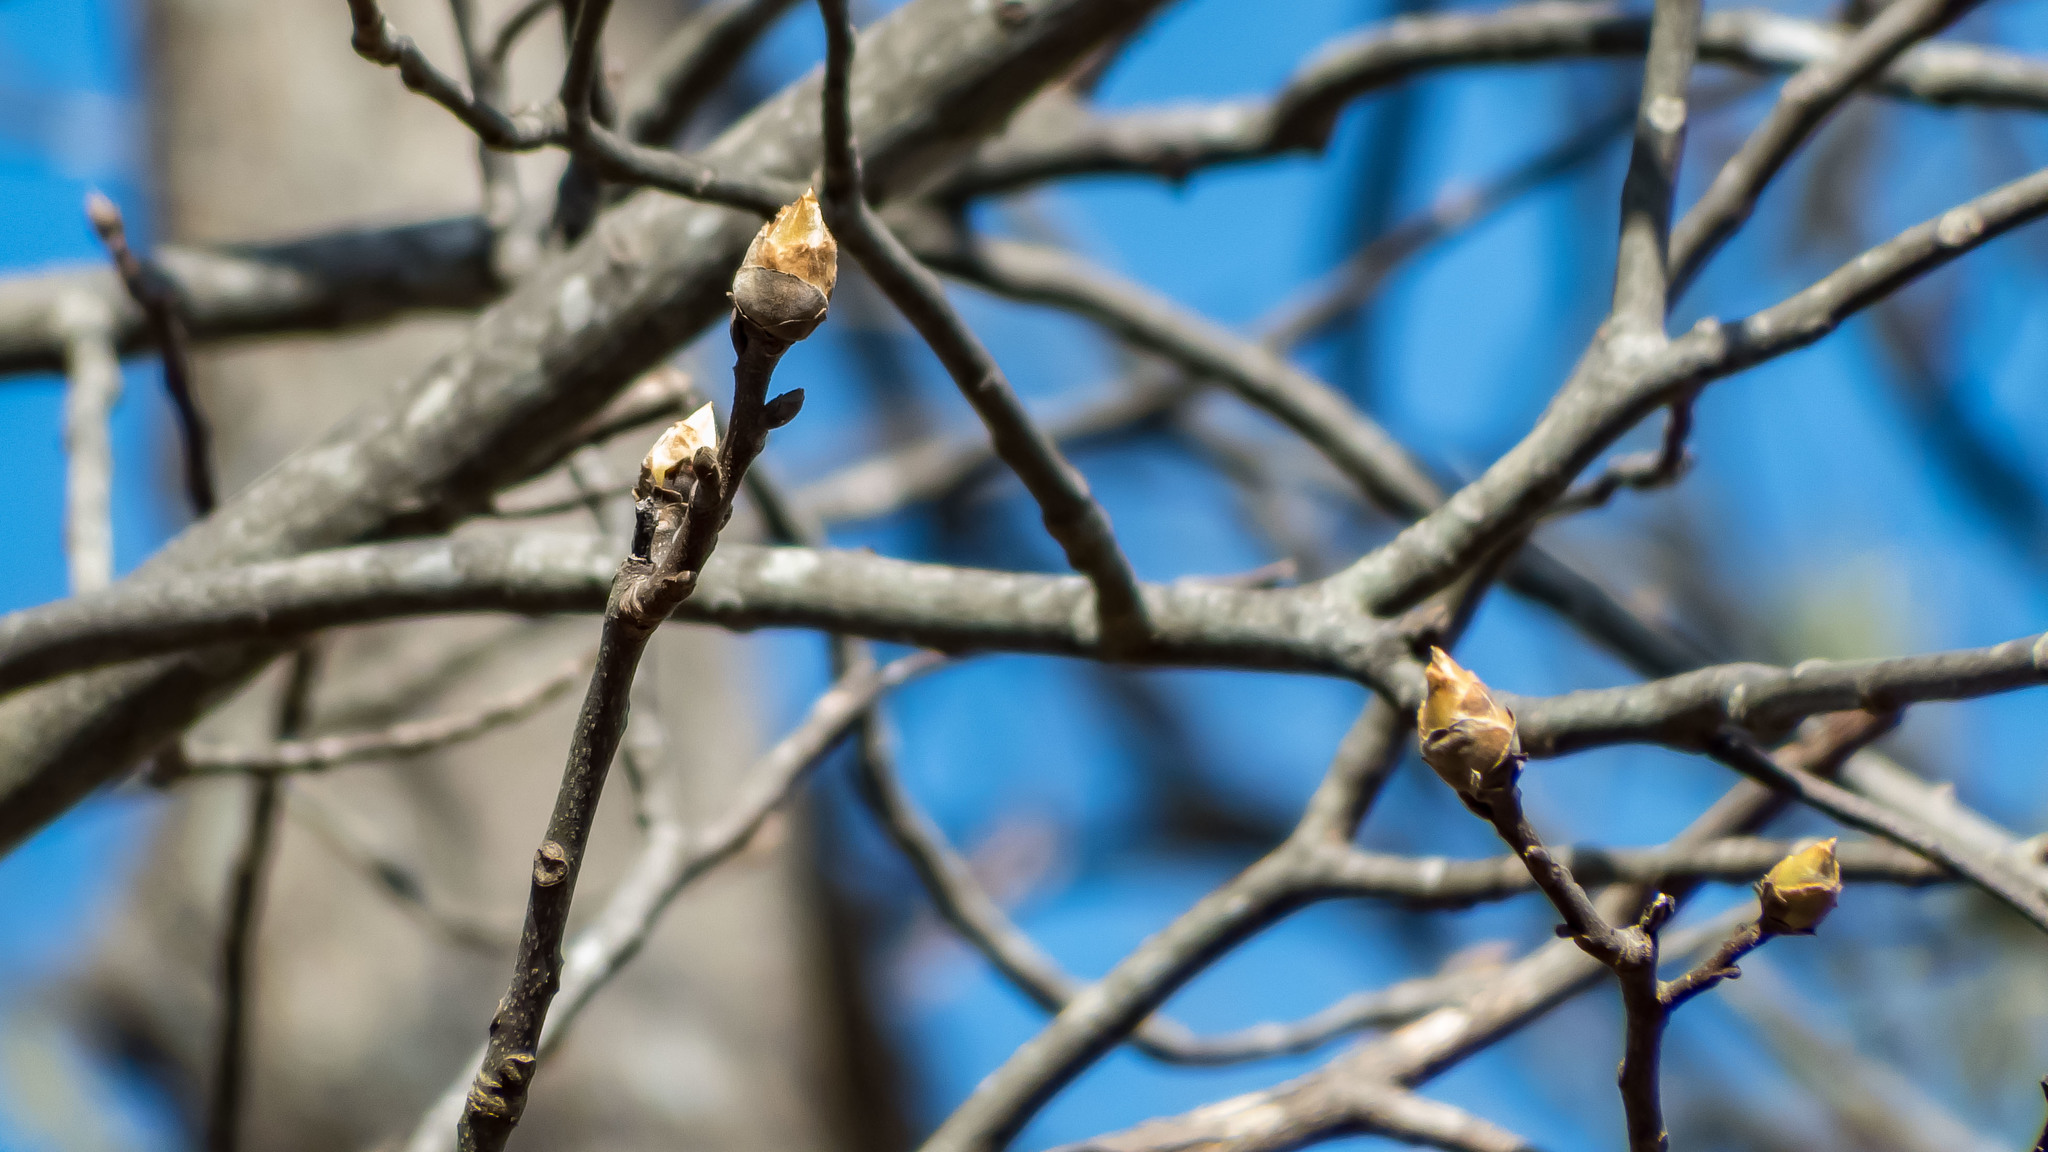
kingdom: Plantae
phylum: Tracheophyta
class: Magnoliopsida
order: Fagales
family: Juglandaceae
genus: Carya
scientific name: Carya ovata
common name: Shagbark hickory
